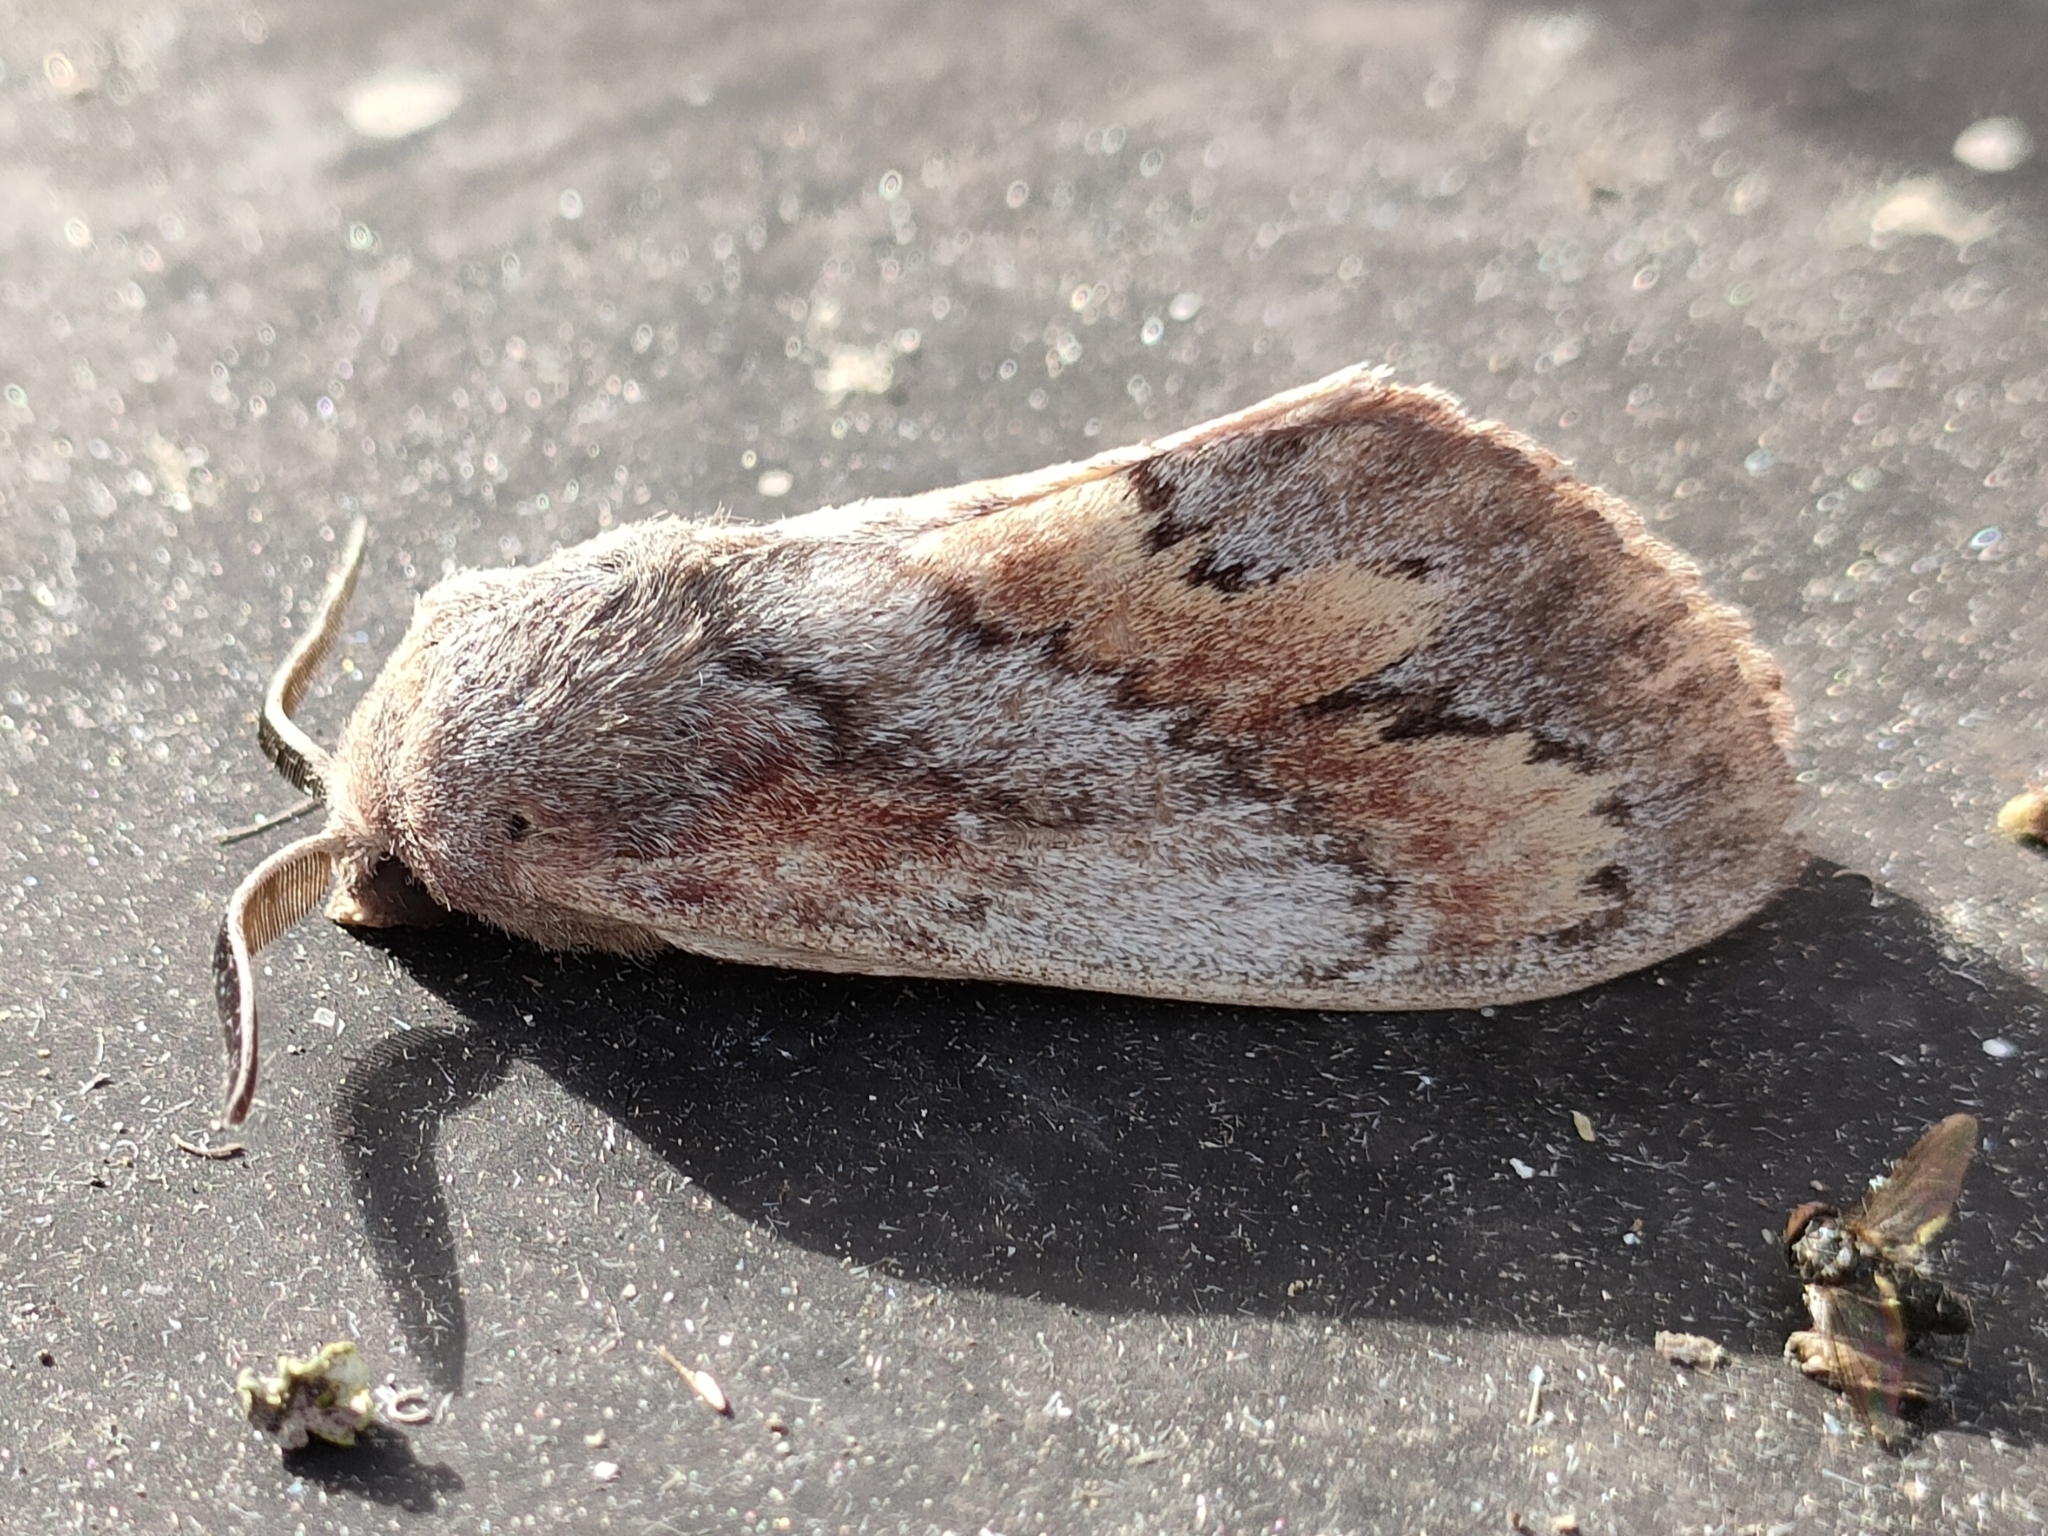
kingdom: Animalia
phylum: Arthropoda
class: Insecta
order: Lepidoptera
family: Lasiocampidae
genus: Dendrolimus
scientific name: Dendrolimus pini
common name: Pine-tree lappet
